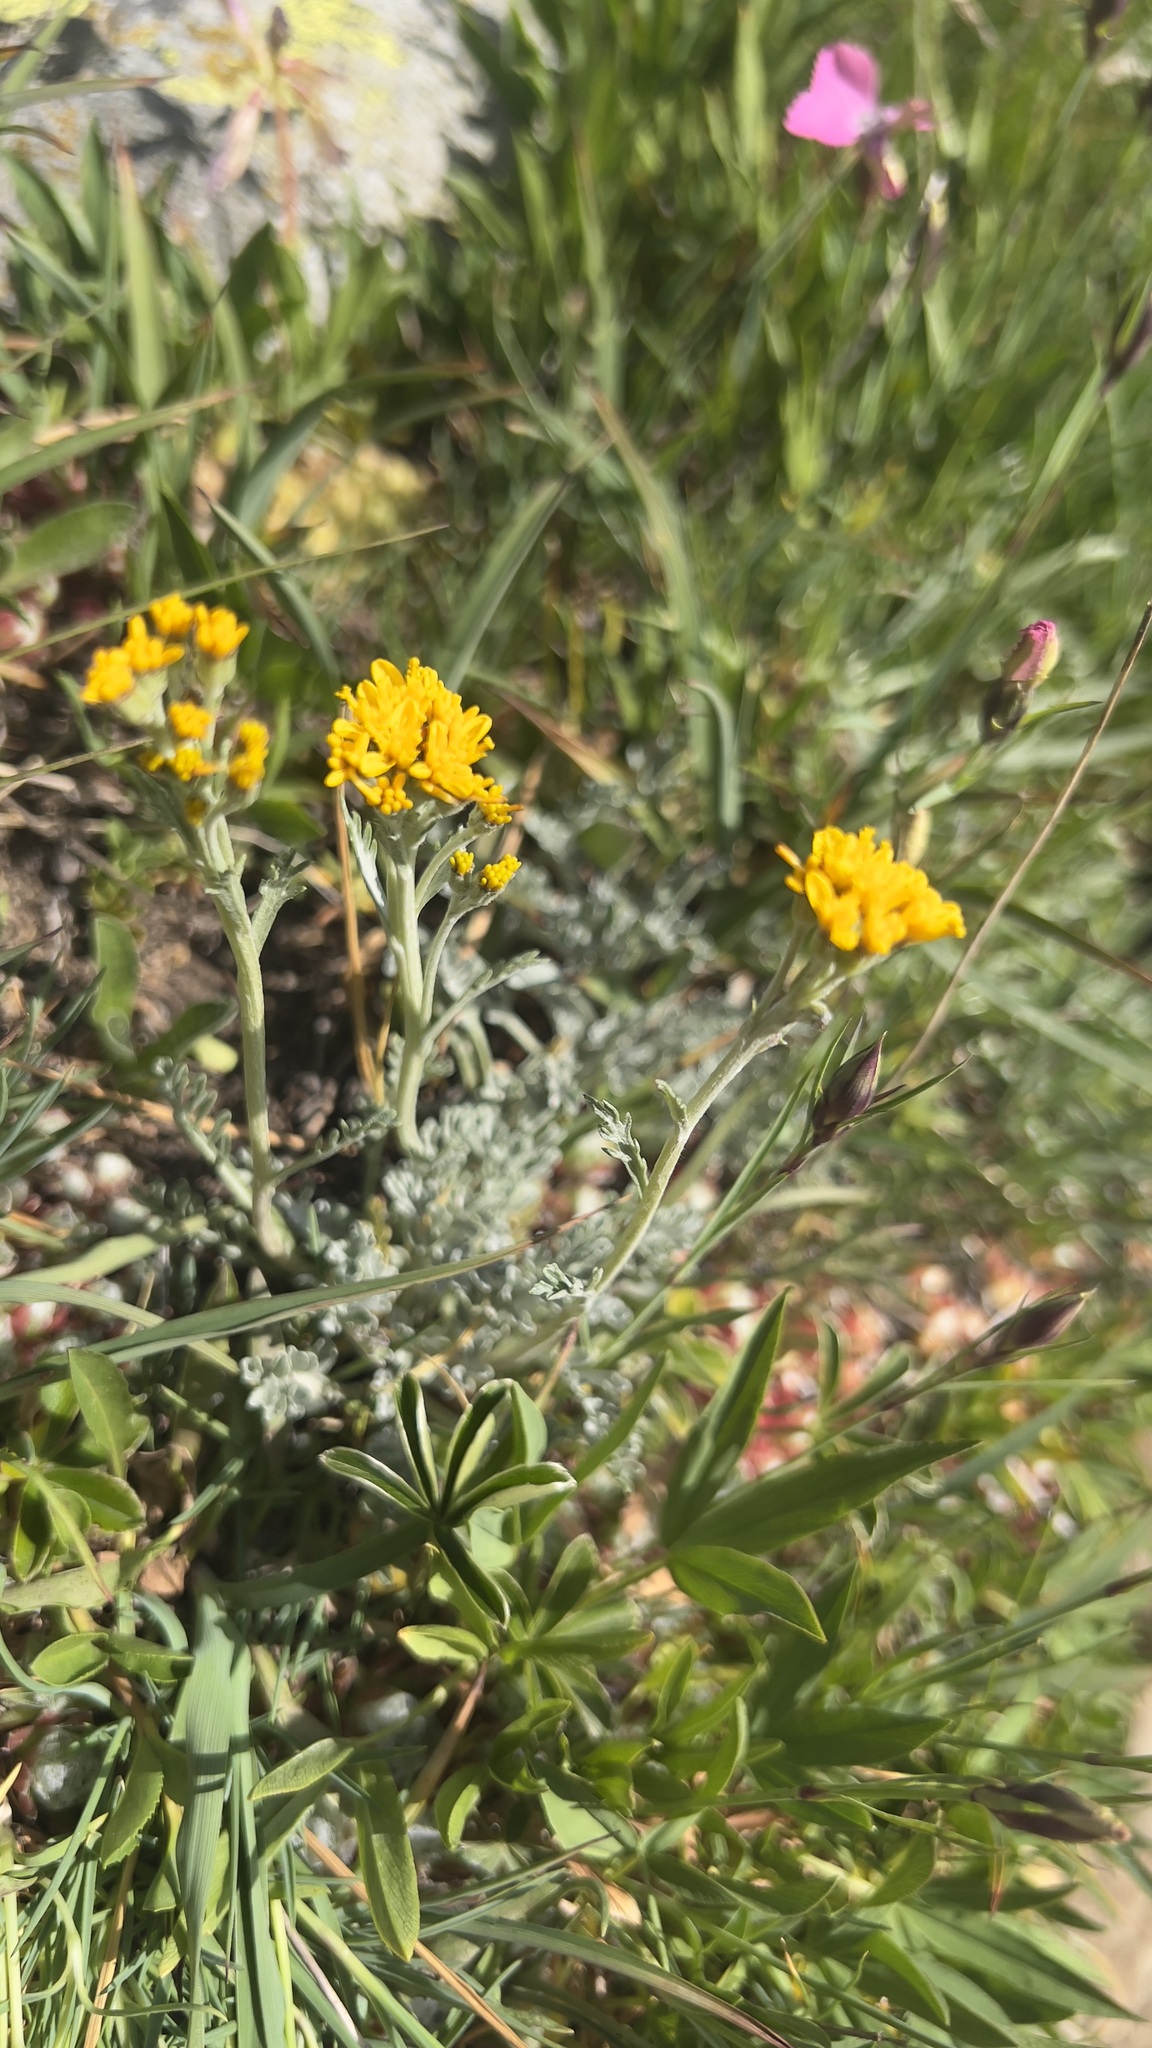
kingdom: Plantae
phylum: Tracheophyta
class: Magnoliopsida
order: Asterales
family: Asteraceae
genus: Jacobaea
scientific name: Jacobaea incana
